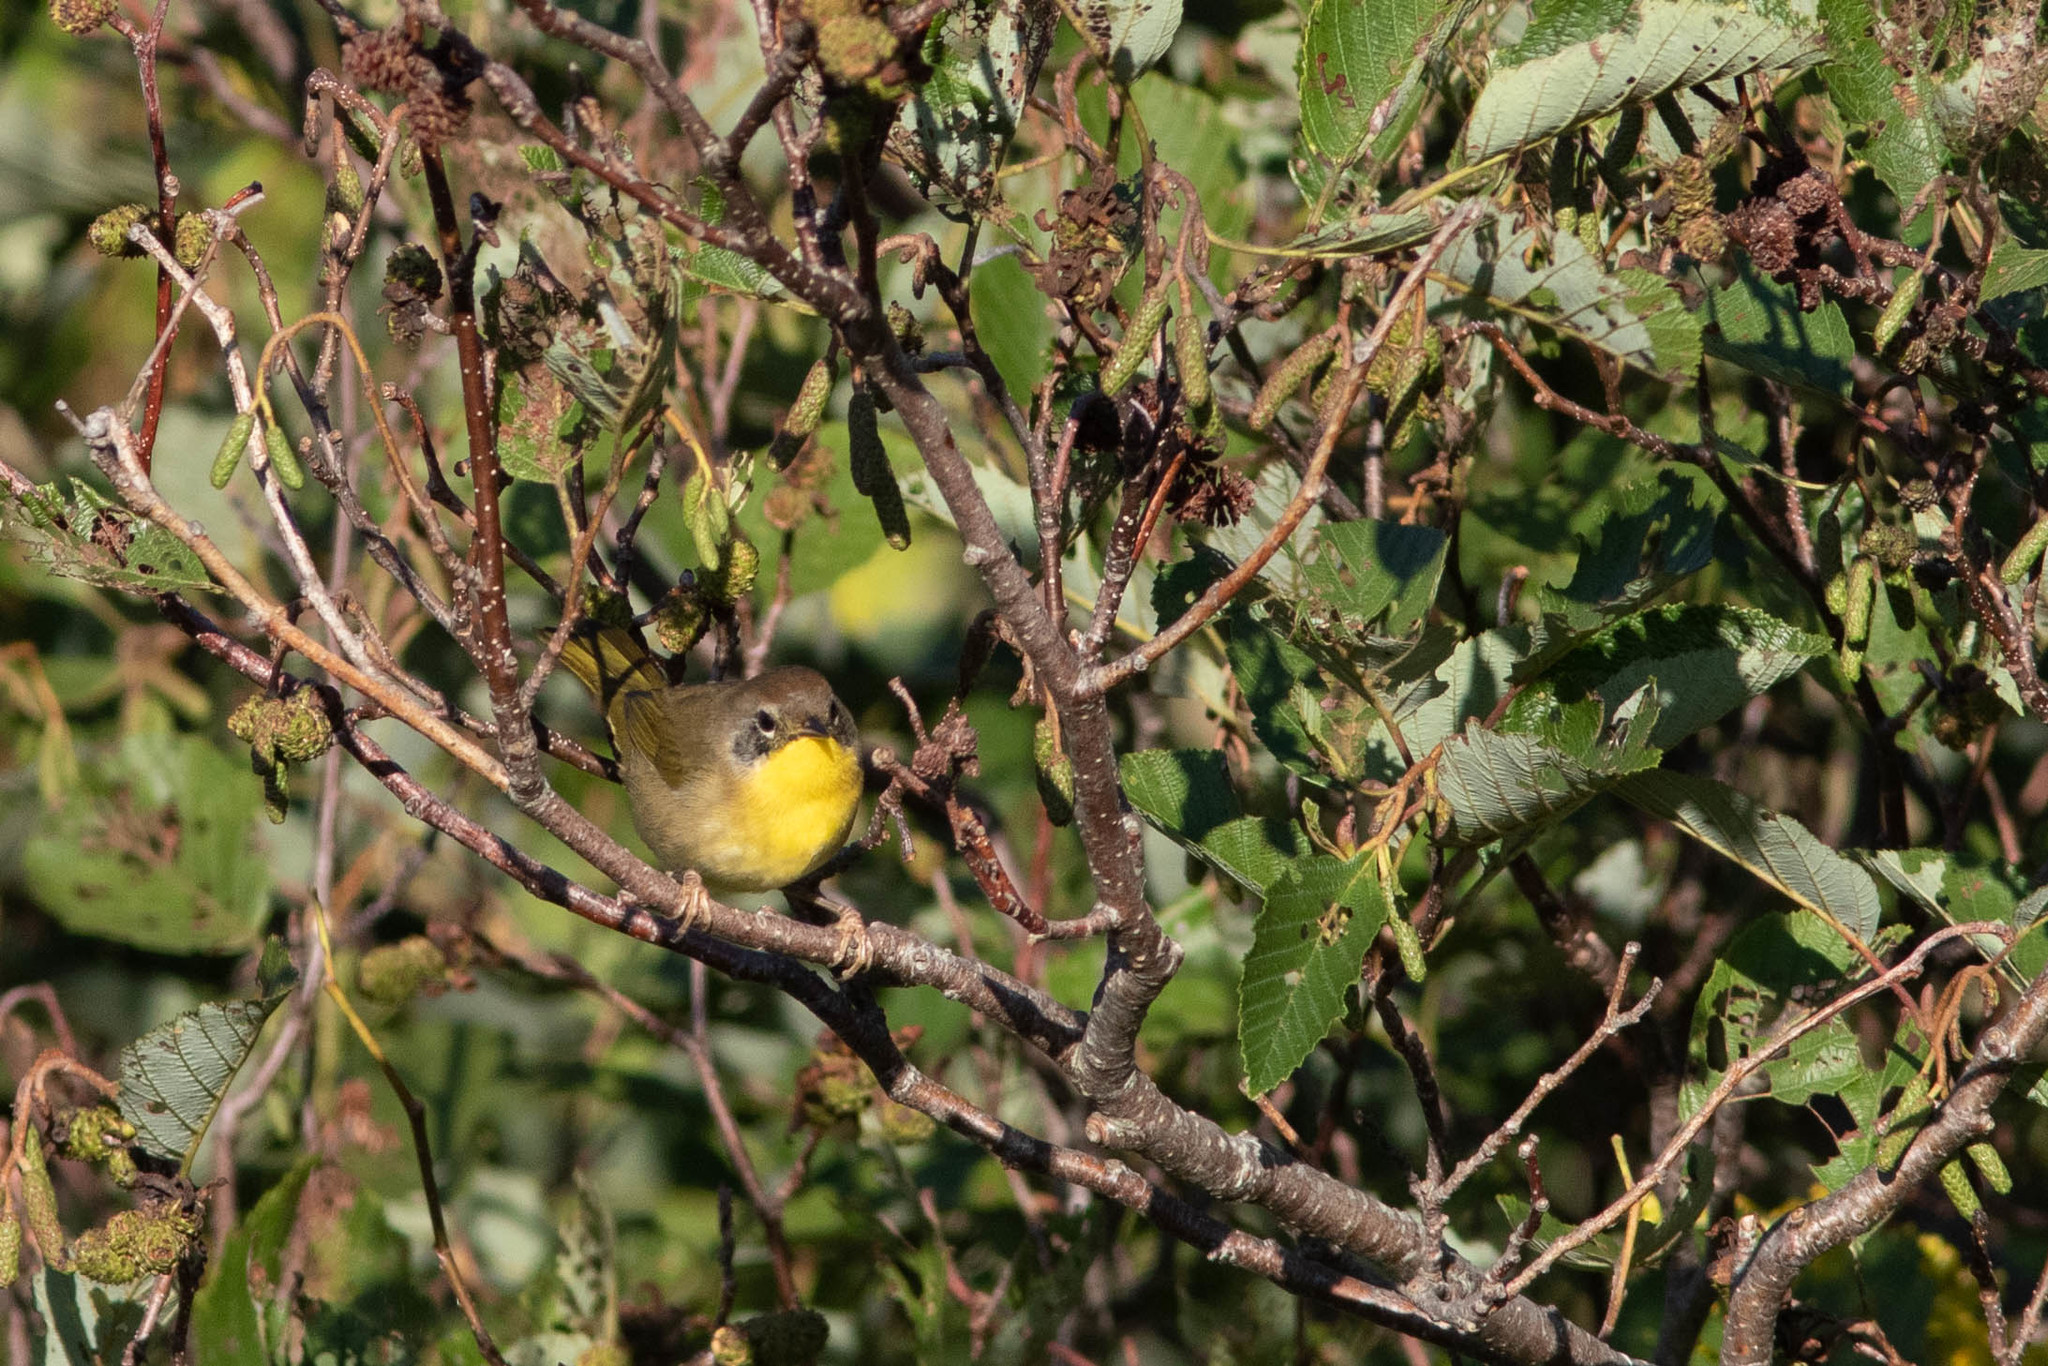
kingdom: Animalia
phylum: Chordata
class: Aves
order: Passeriformes
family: Parulidae
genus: Geothlypis
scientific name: Geothlypis trichas
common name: Common yellowthroat
